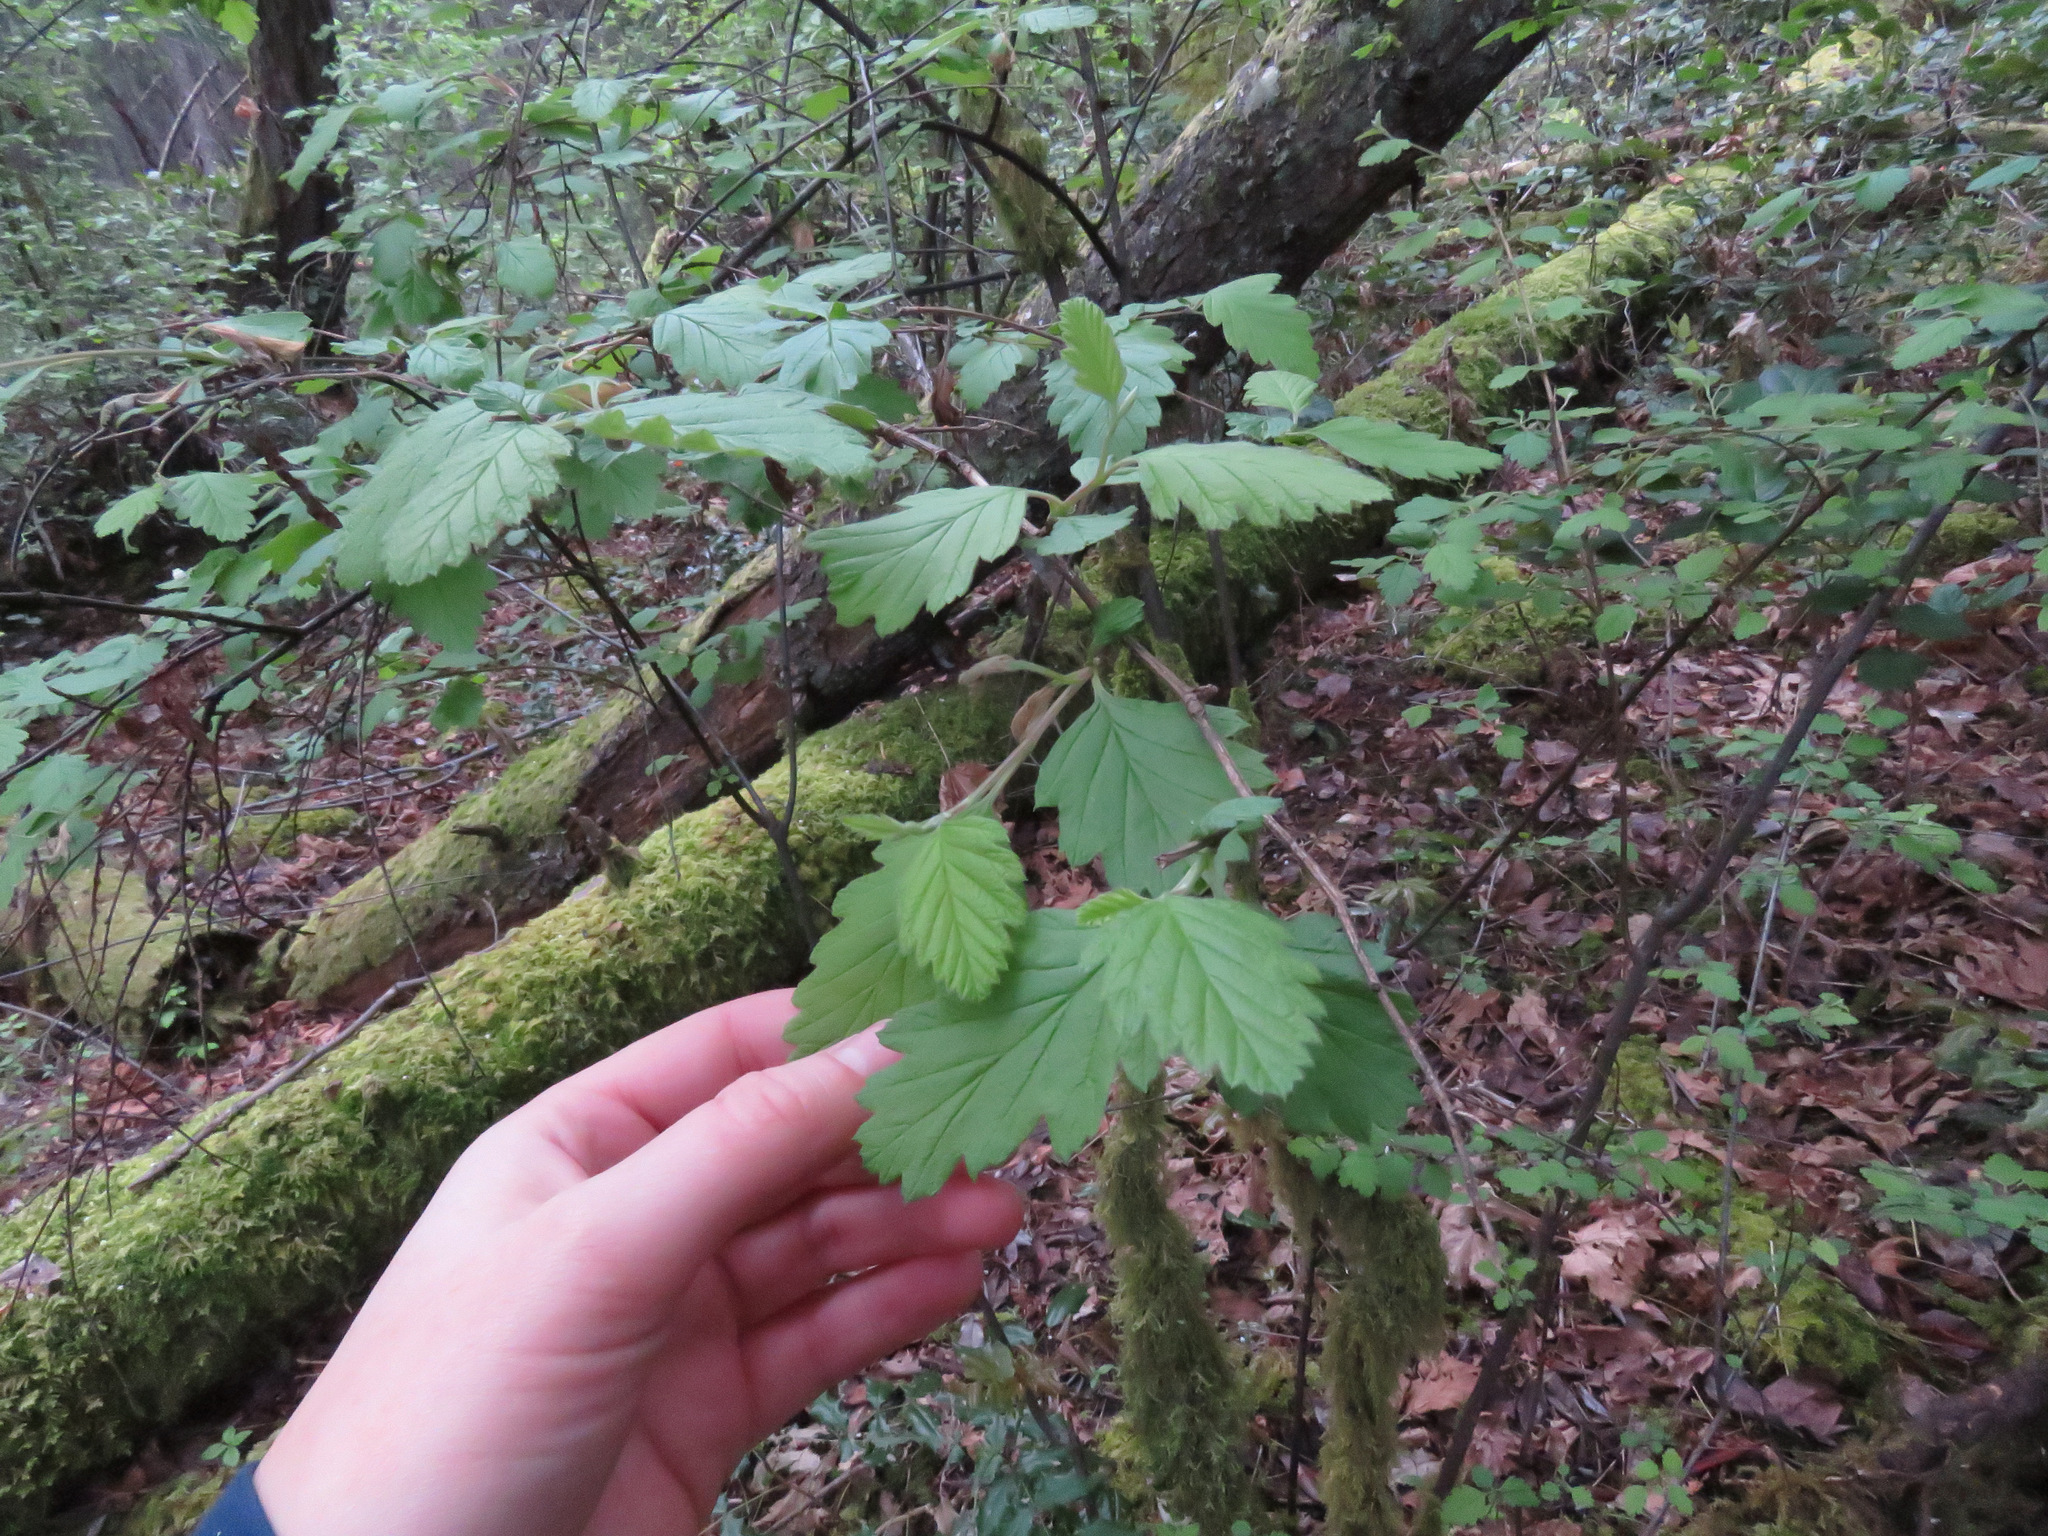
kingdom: Plantae
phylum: Tracheophyta
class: Magnoliopsida
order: Rosales
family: Rosaceae
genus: Holodiscus
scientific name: Holodiscus discolor
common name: Oceanspray
